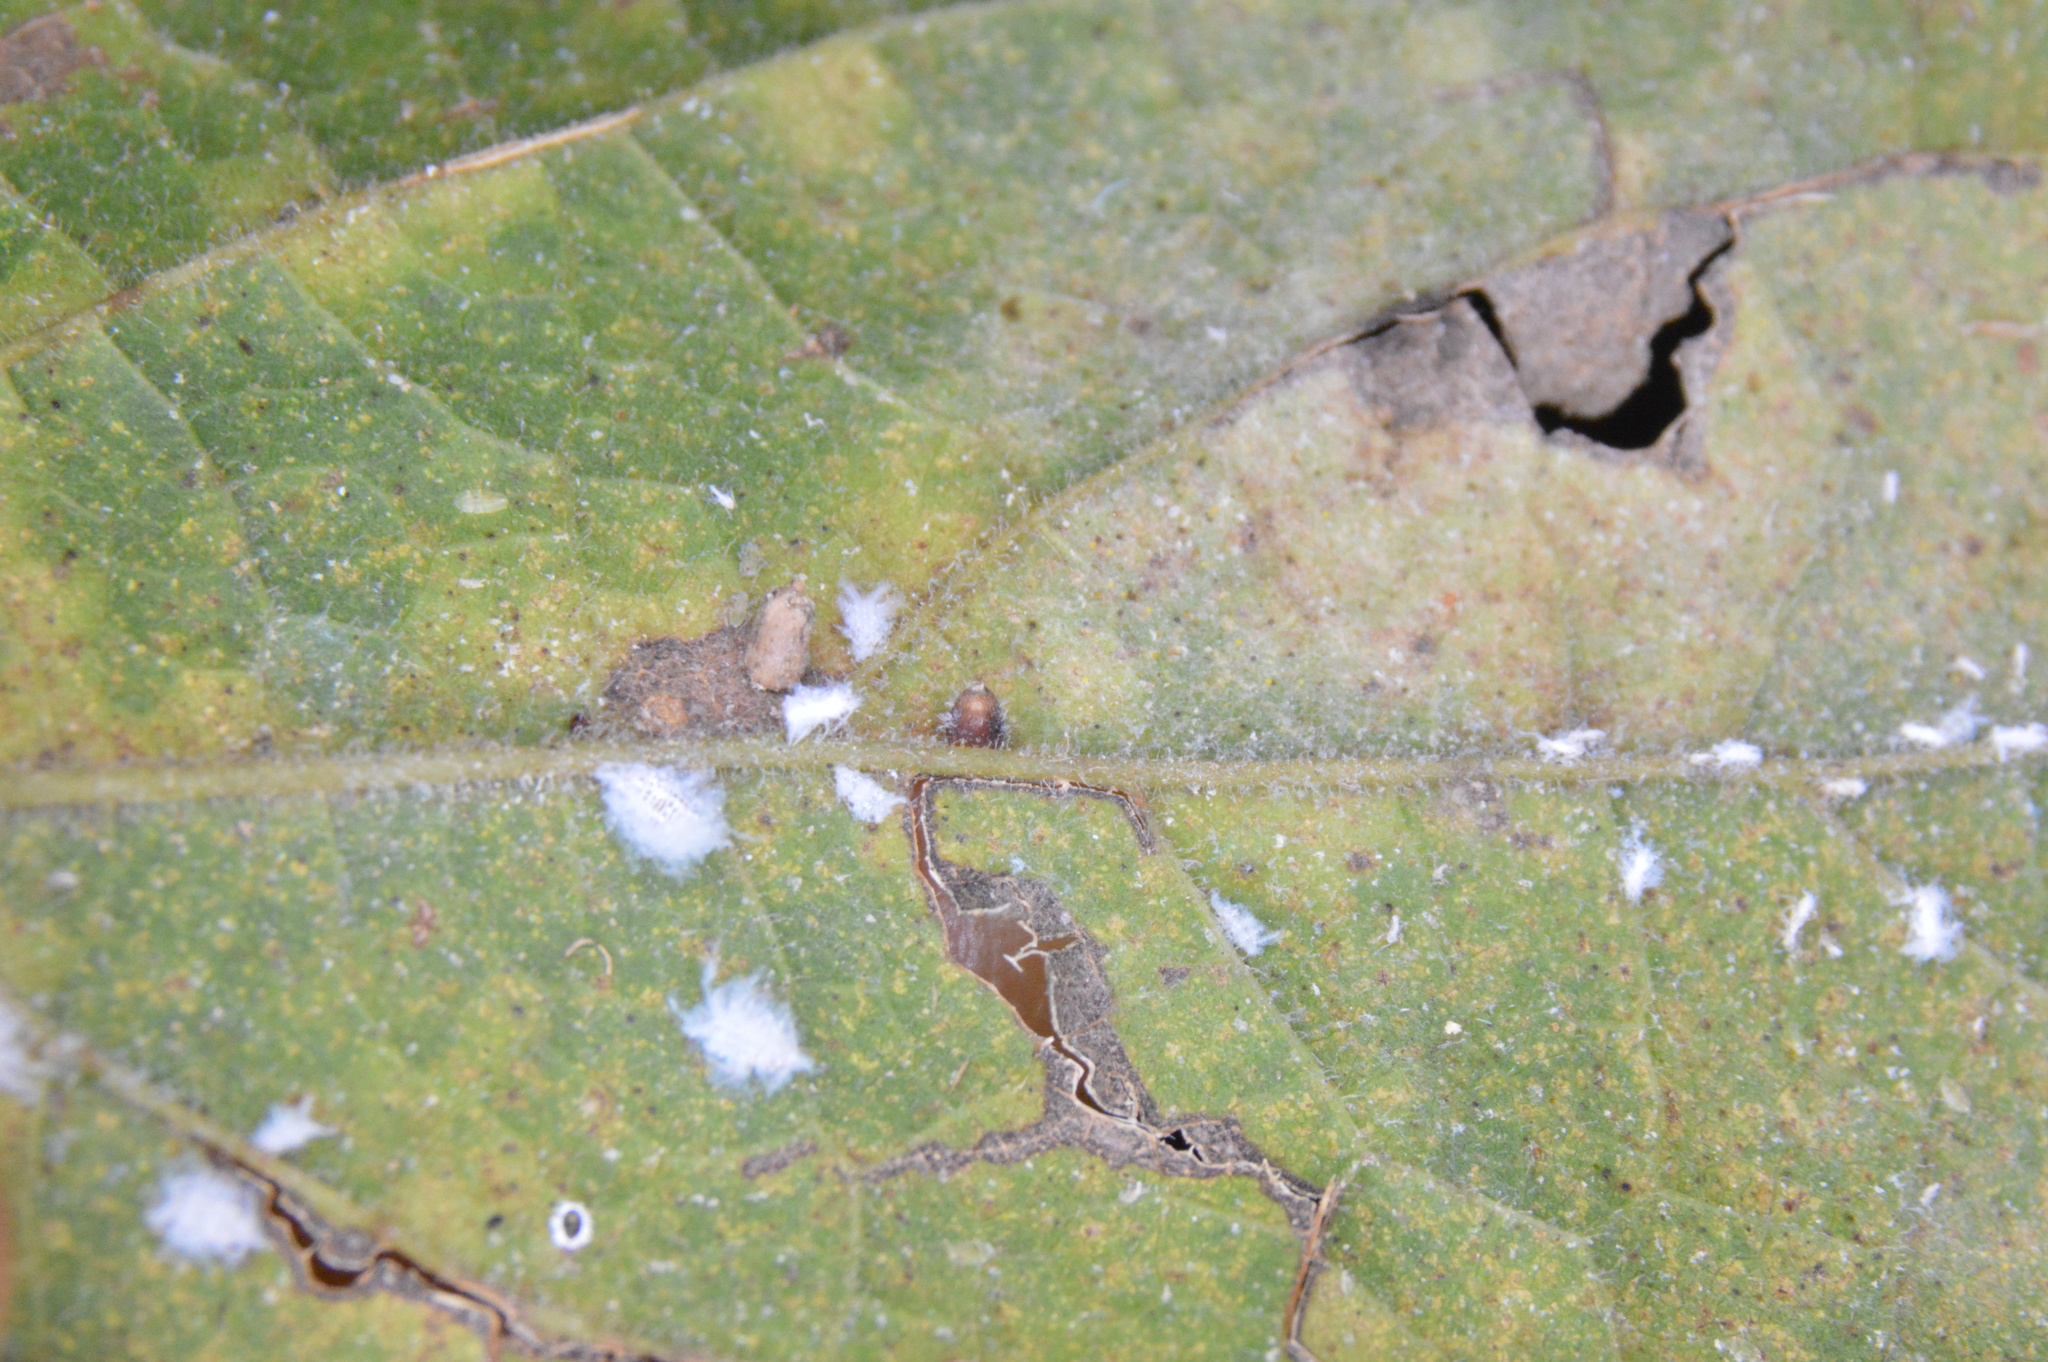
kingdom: Animalia
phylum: Arthropoda
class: Insecta
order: Diptera
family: Cecidomyiidae
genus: Celticecis
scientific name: Celticecis cupiformis
